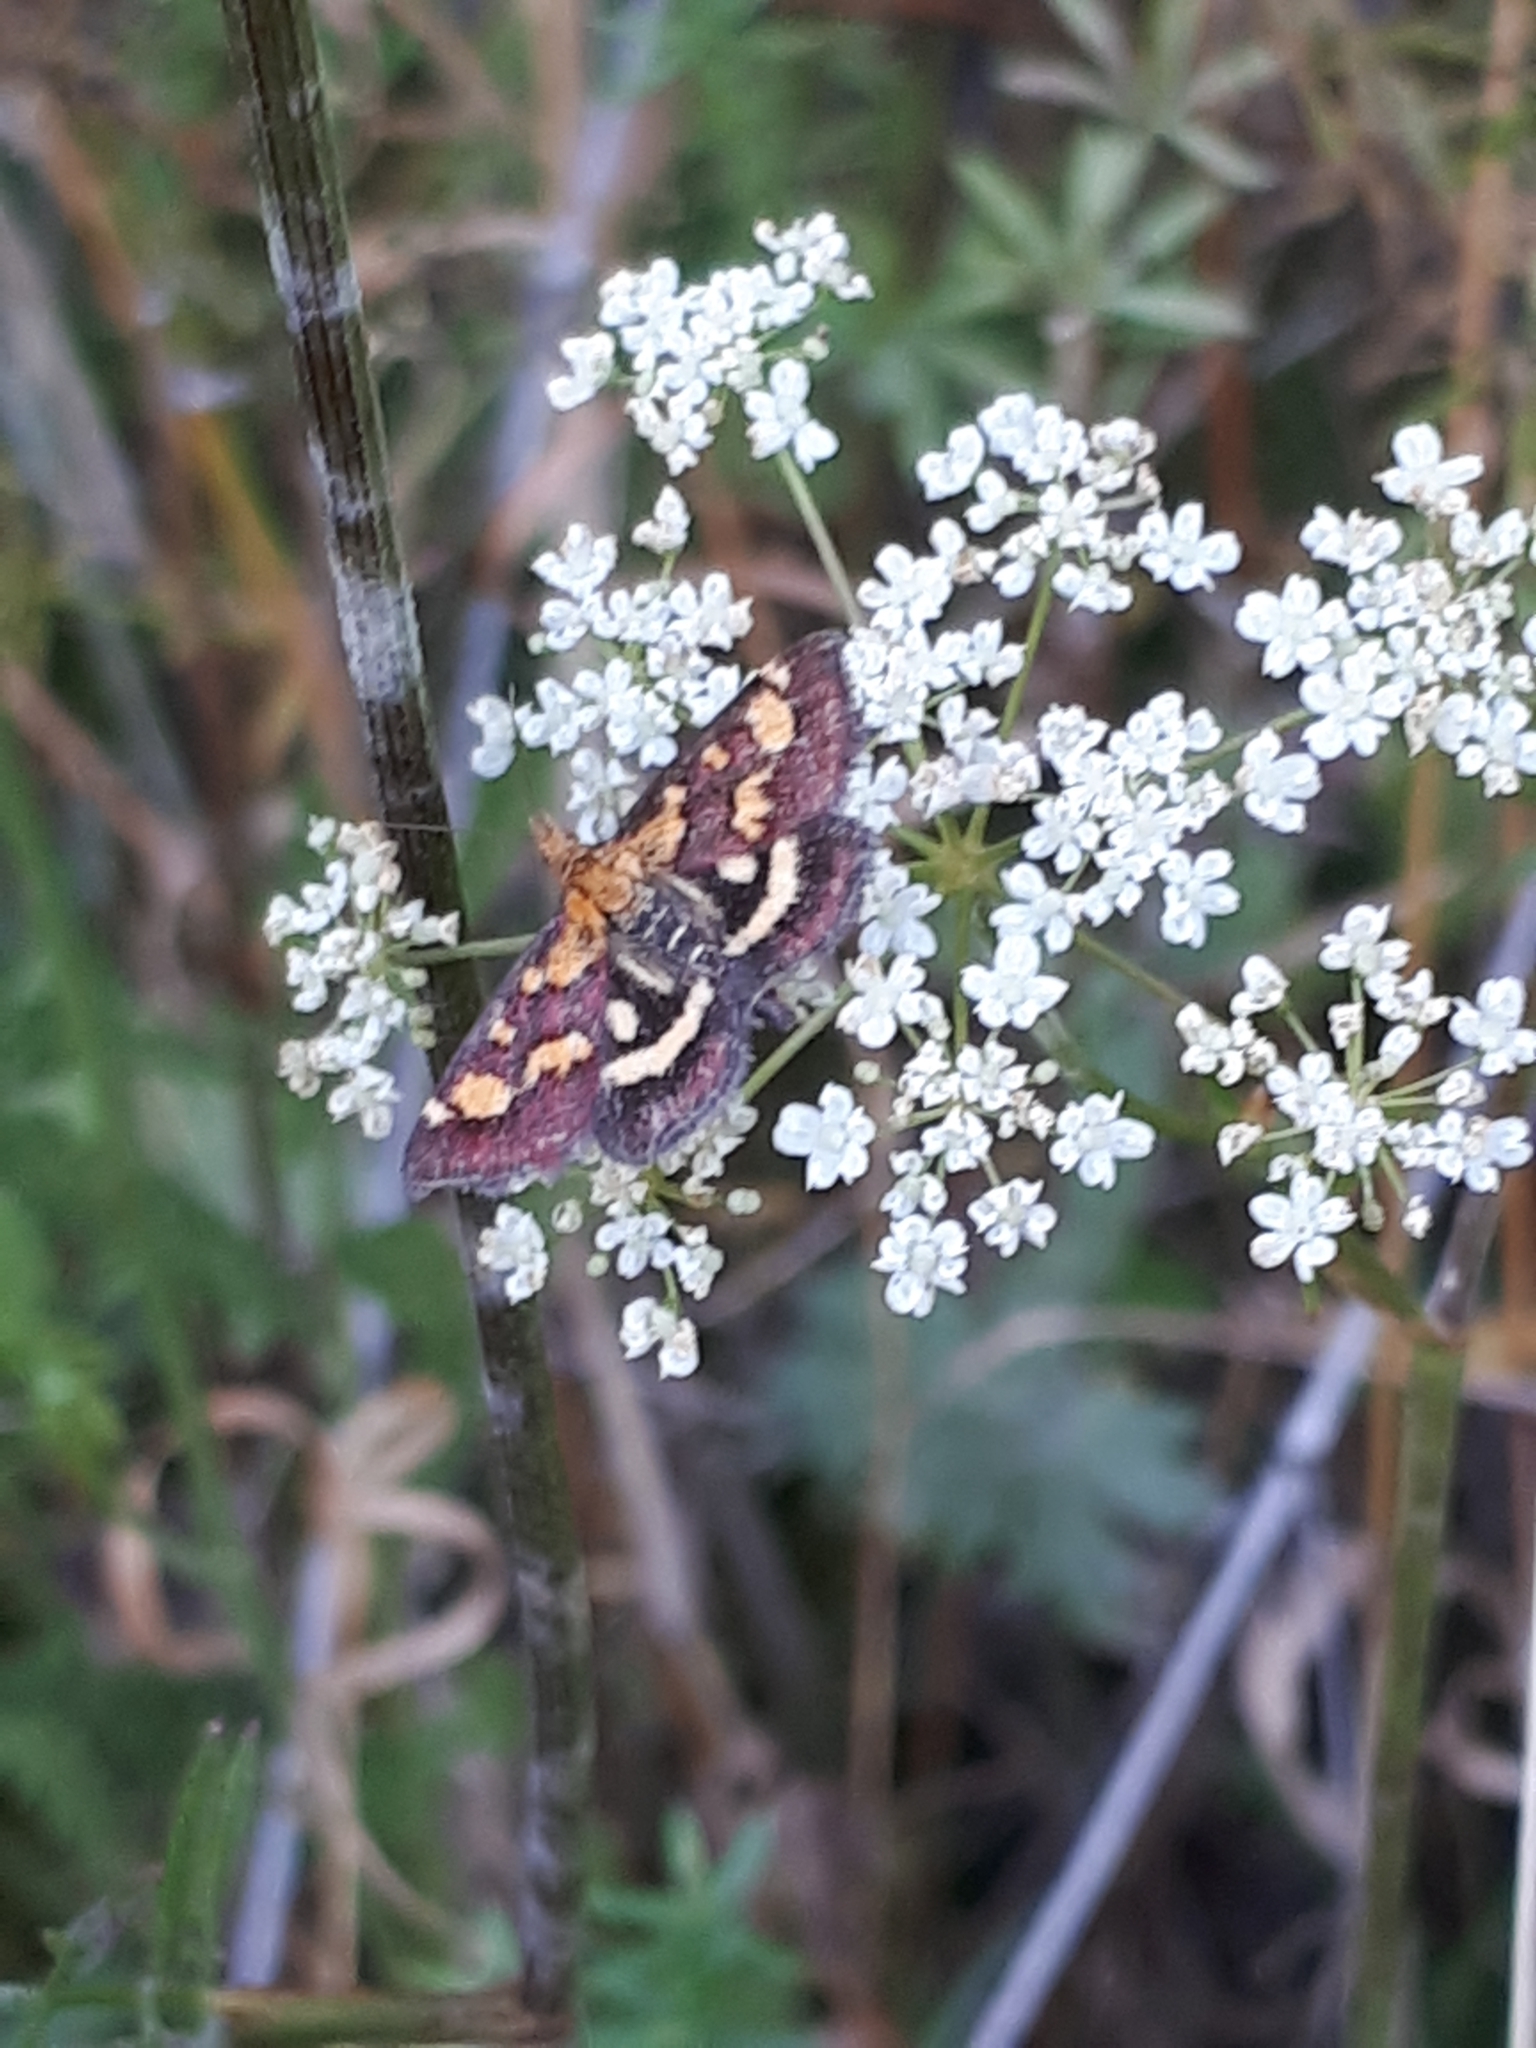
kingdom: Animalia
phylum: Arthropoda
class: Insecta
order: Lepidoptera
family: Crambidae
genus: Pyrausta
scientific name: Pyrausta purpuralis
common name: Common purple & gold
